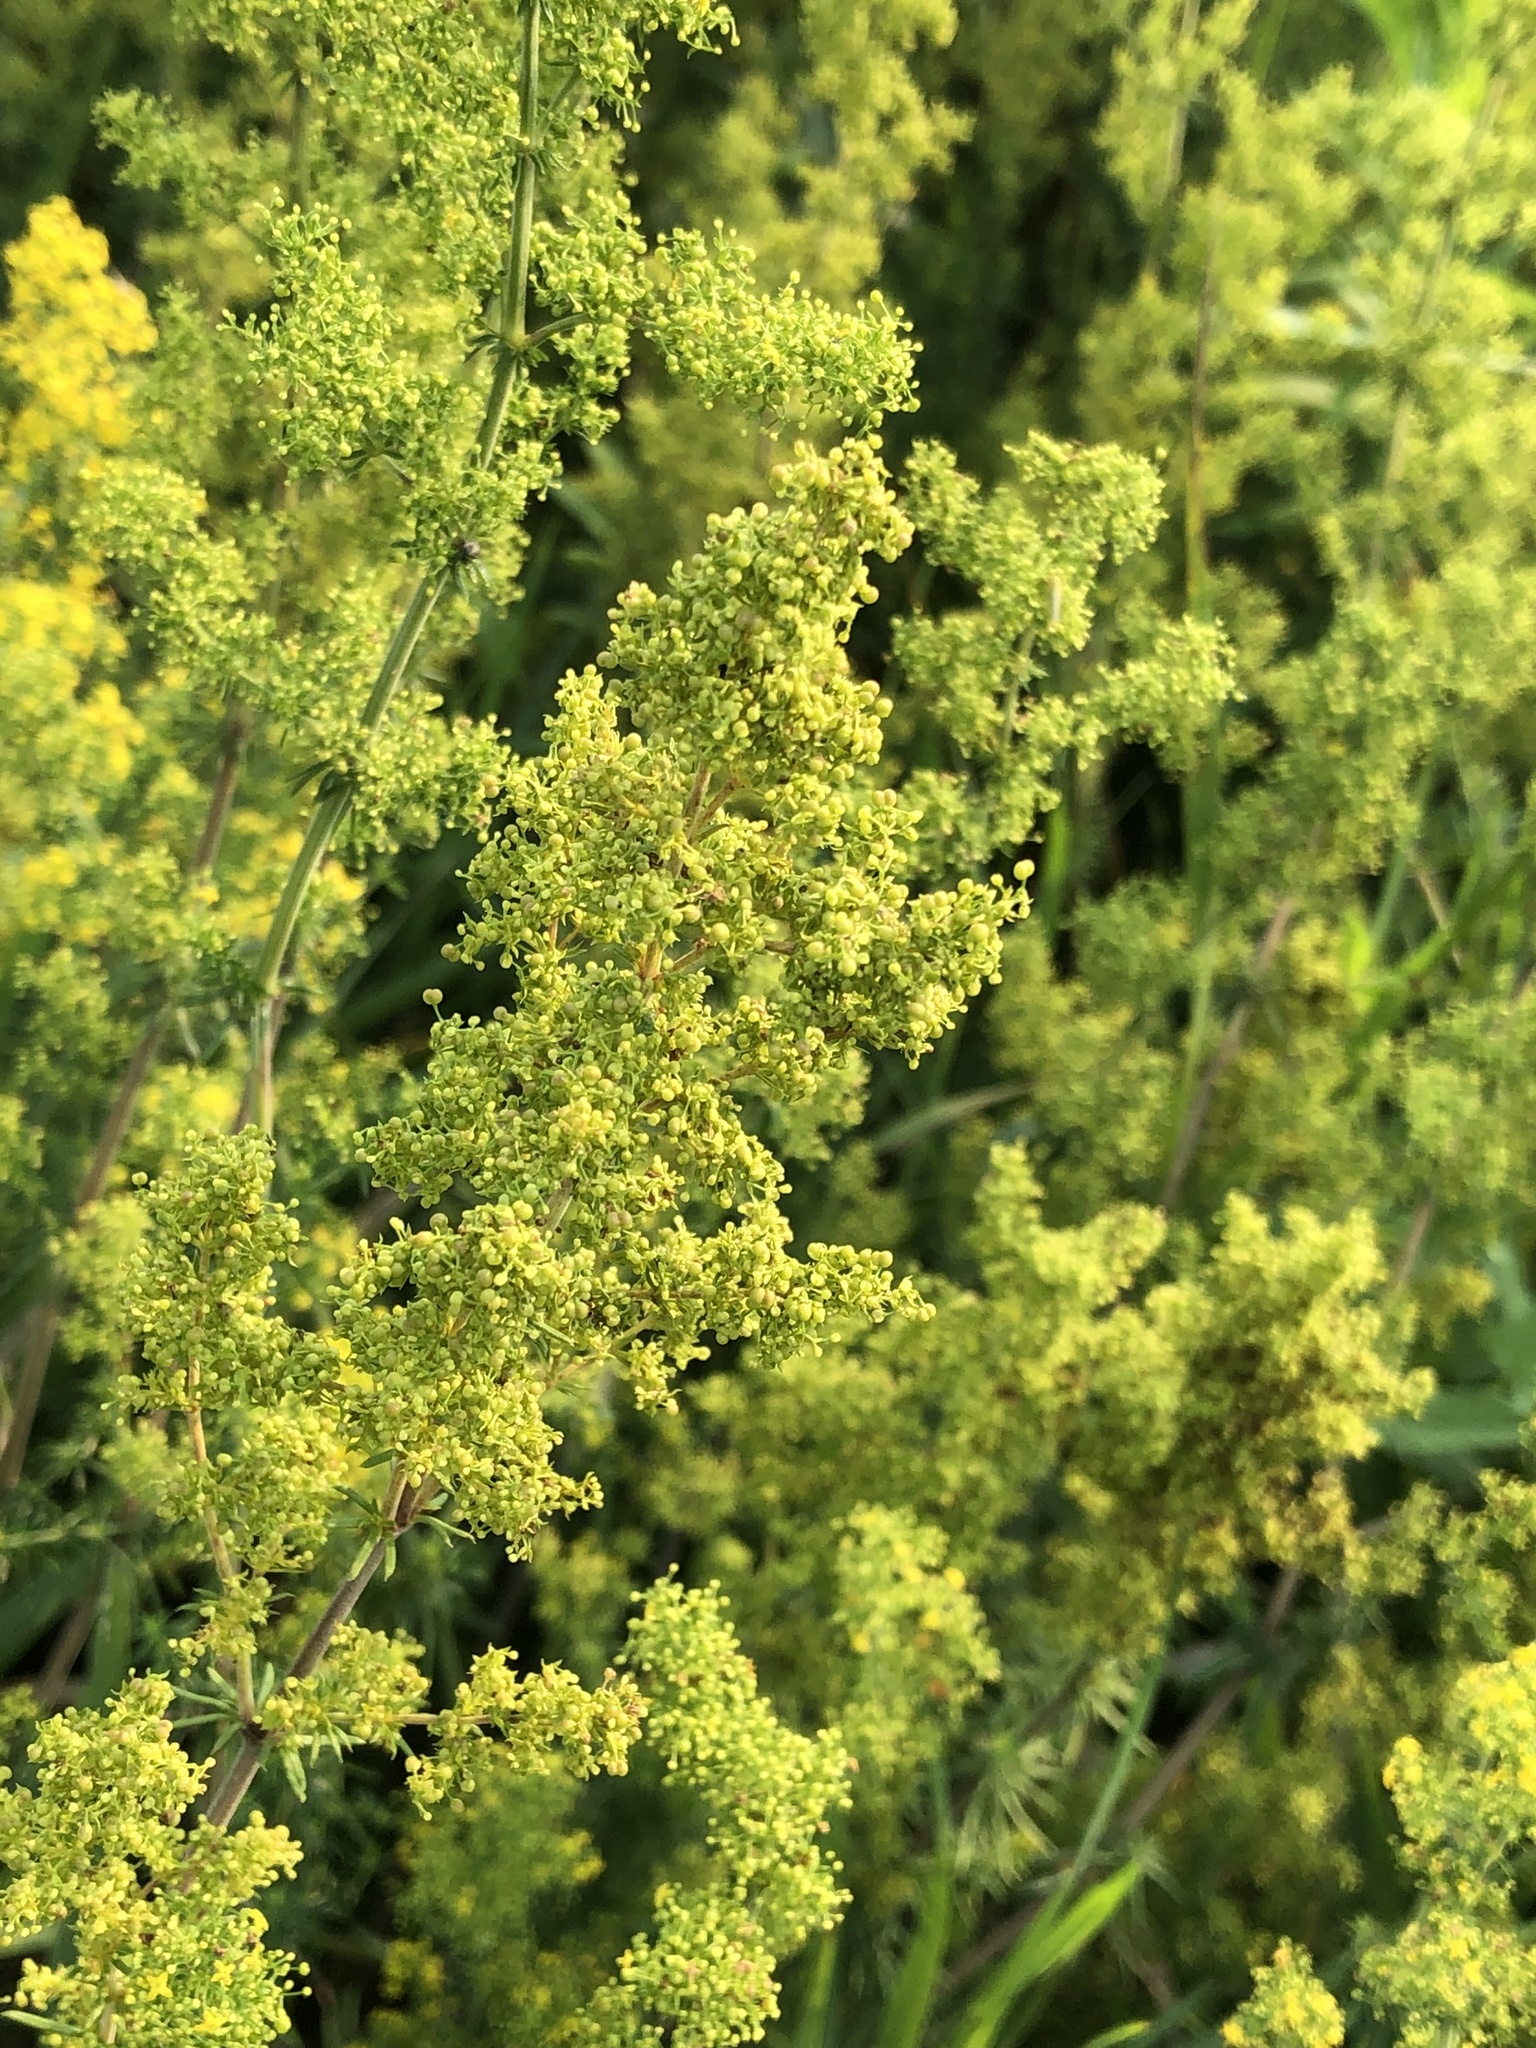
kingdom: Plantae
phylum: Tracheophyta
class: Magnoliopsida
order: Gentianales
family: Rubiaceae
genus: Galium
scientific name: Galium verum
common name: Lady's bedstraw
